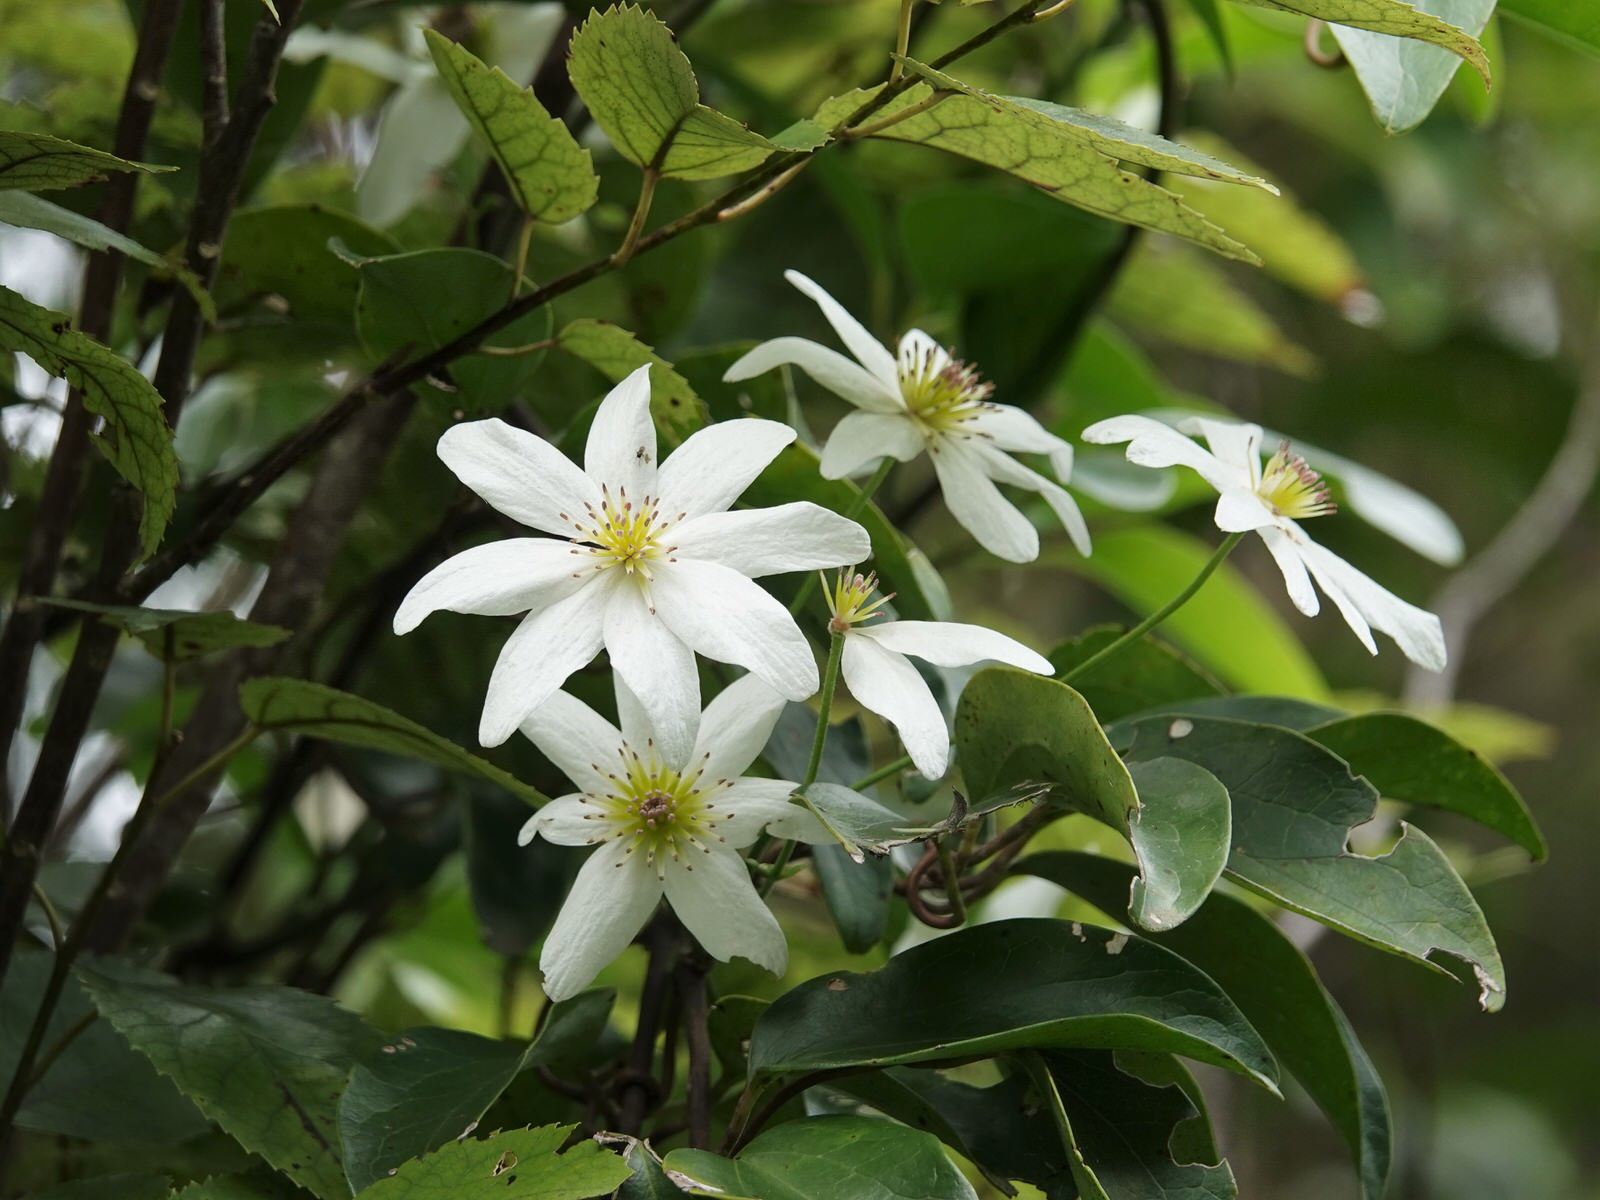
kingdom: Plantae
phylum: Tracheophyta
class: Magnoliopsida
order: Ranunculales
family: Ranunculaceae
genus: Clematis
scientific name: Clematis paniculata
